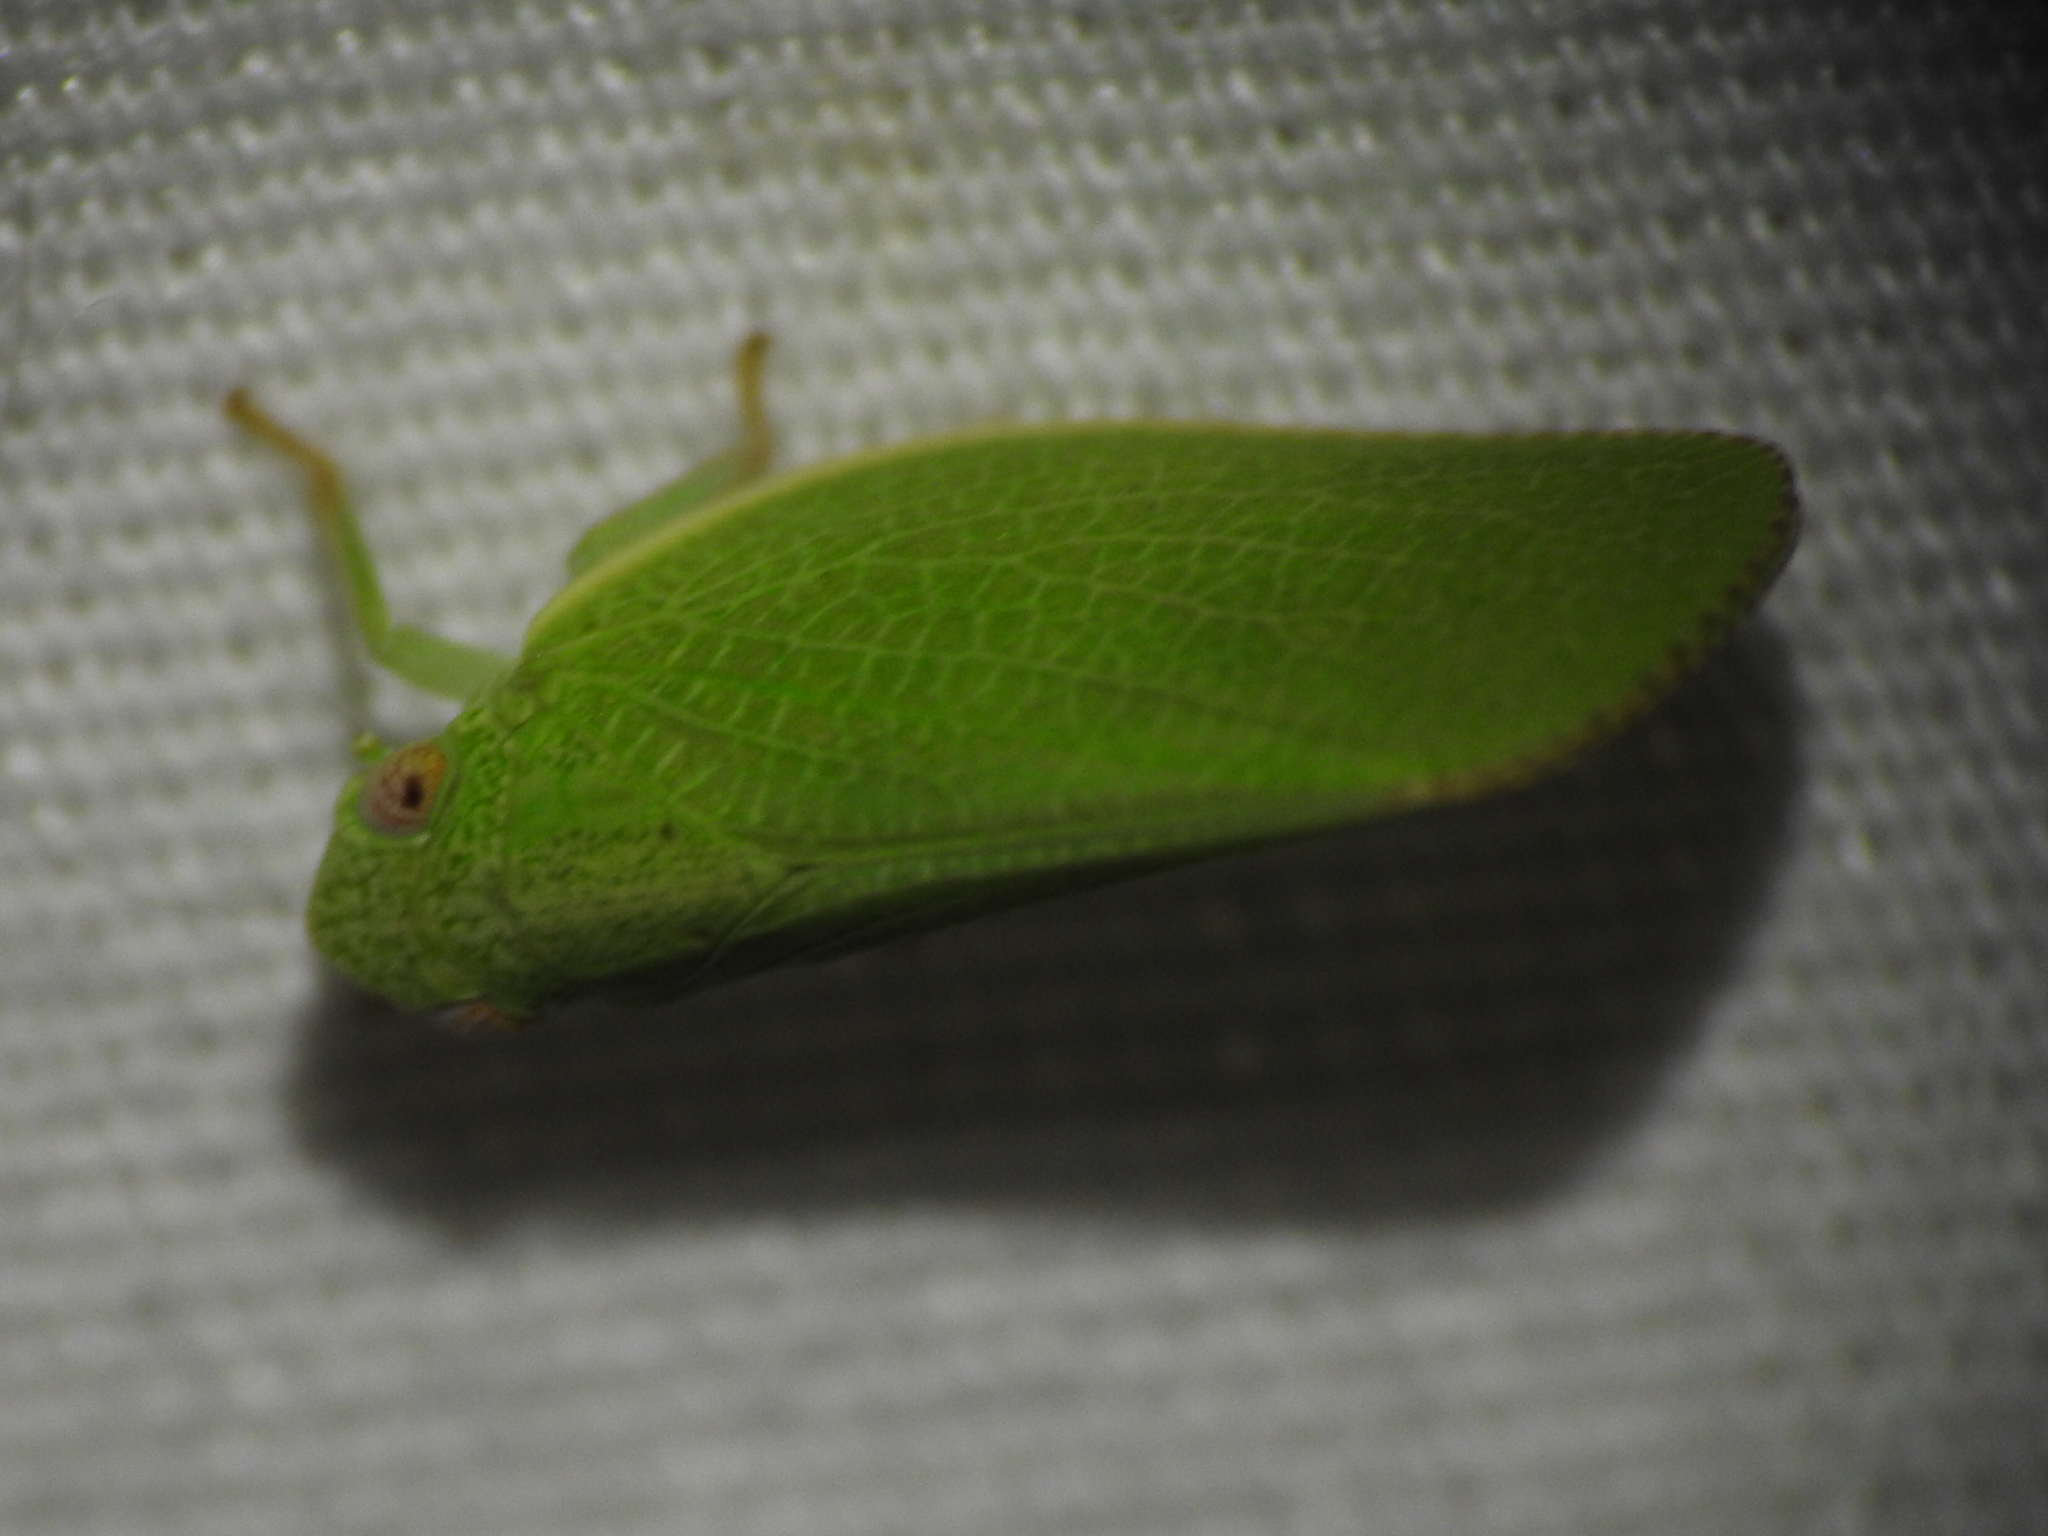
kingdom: Animalia
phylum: Arthropoda
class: Insecta
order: Hemiptera
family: Acanaloniidae
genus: Acanalonia
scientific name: Acanalonia conica
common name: Green cone-headed planthopper
